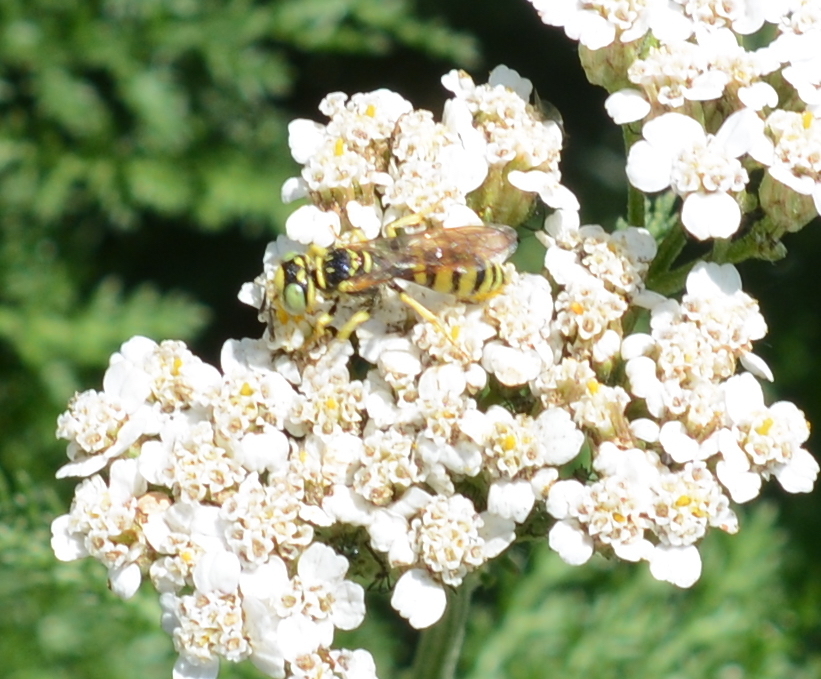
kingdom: Animalia
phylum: Arthropoda
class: Insecta
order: Hymenoptera
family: Crabronidae
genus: Philanthus
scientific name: Philanthus multimaculatus
